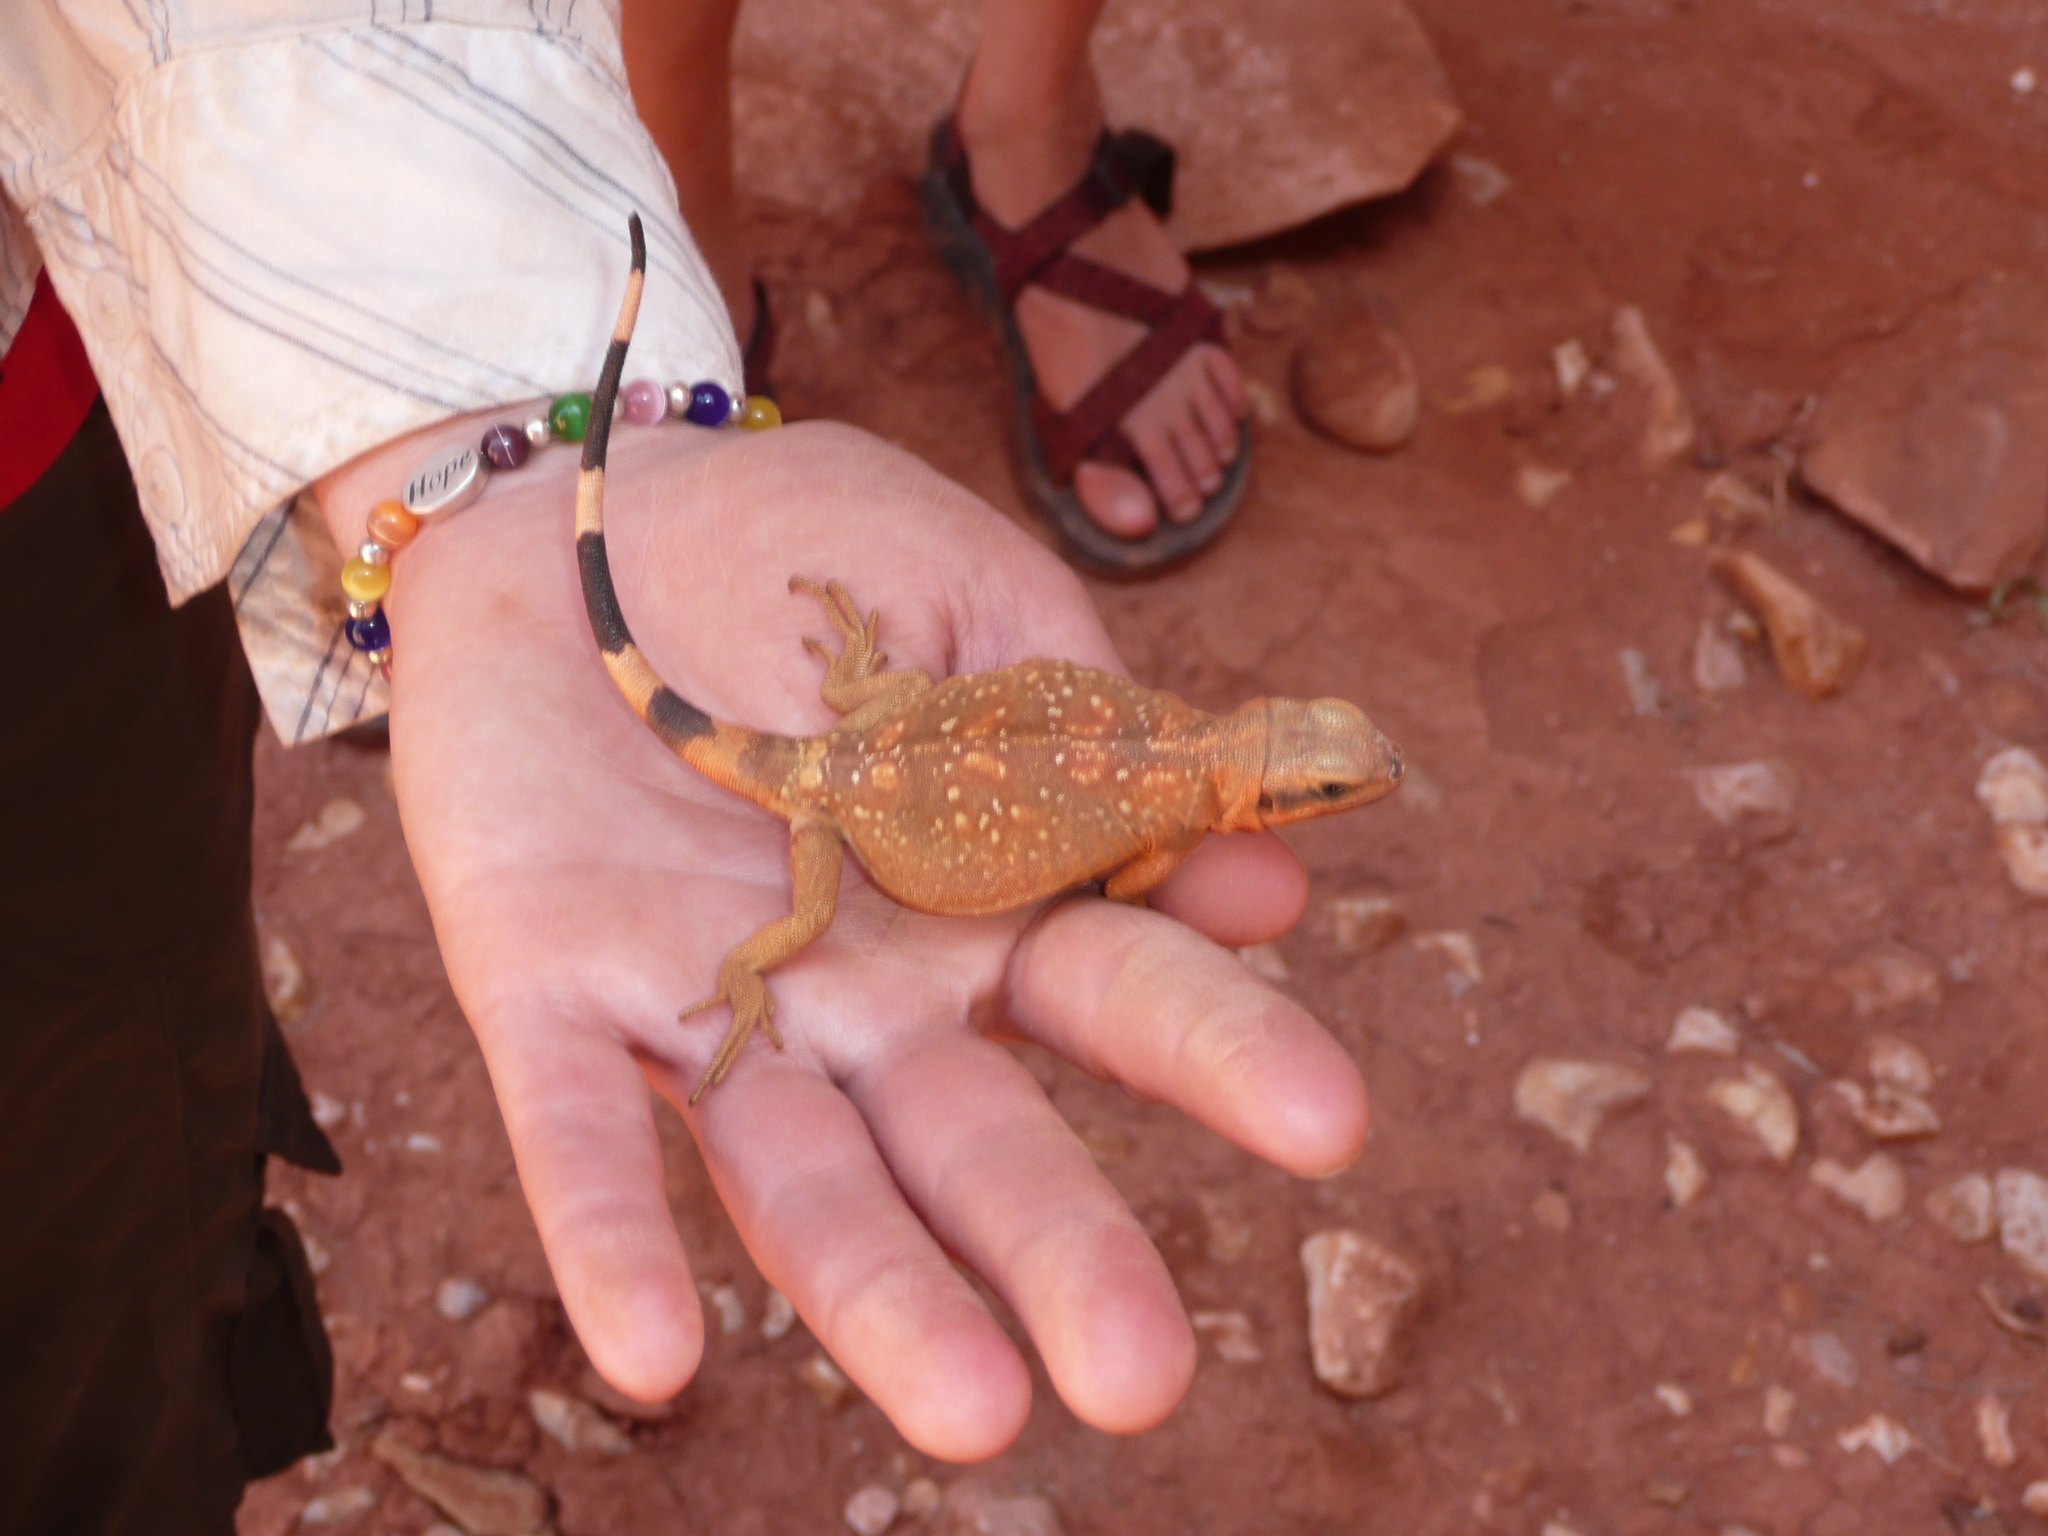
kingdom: Animalia
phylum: Chordata
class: Squamata
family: Iguanidae
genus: Sauromalus
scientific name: Sauromalus ater
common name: Northern chuckwalla
